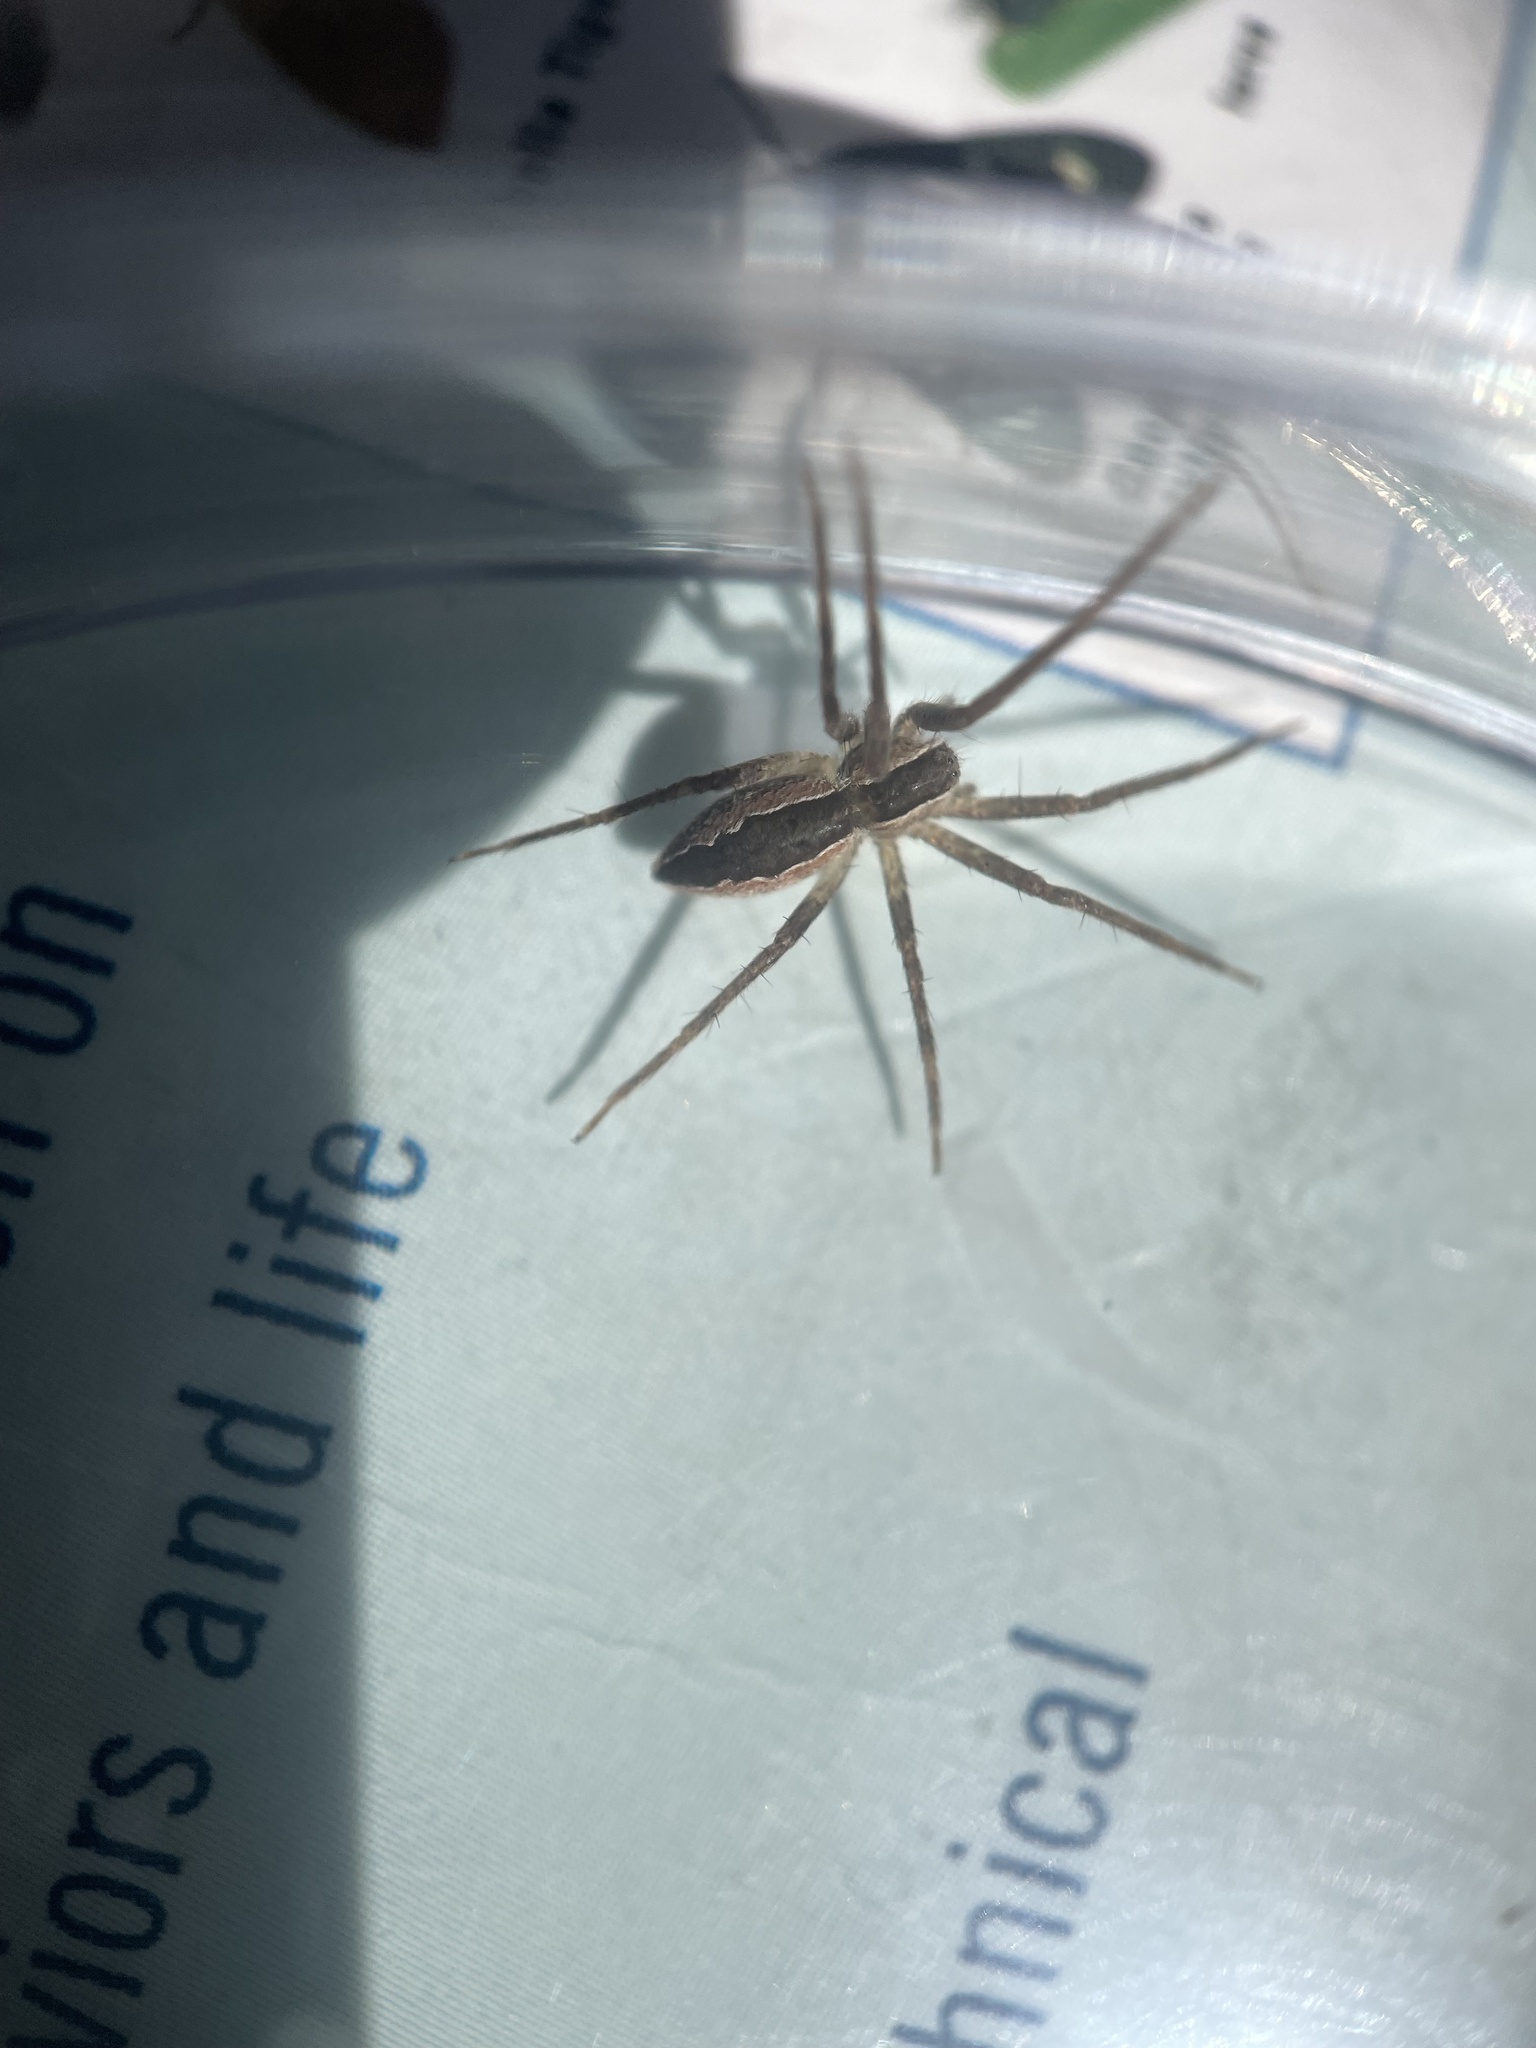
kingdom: Animalia
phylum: Arthropoda
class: Arachnida
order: Araneae
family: Pisauridae
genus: Pisaurina
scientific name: Pisaurina mira
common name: American nursery web spider
